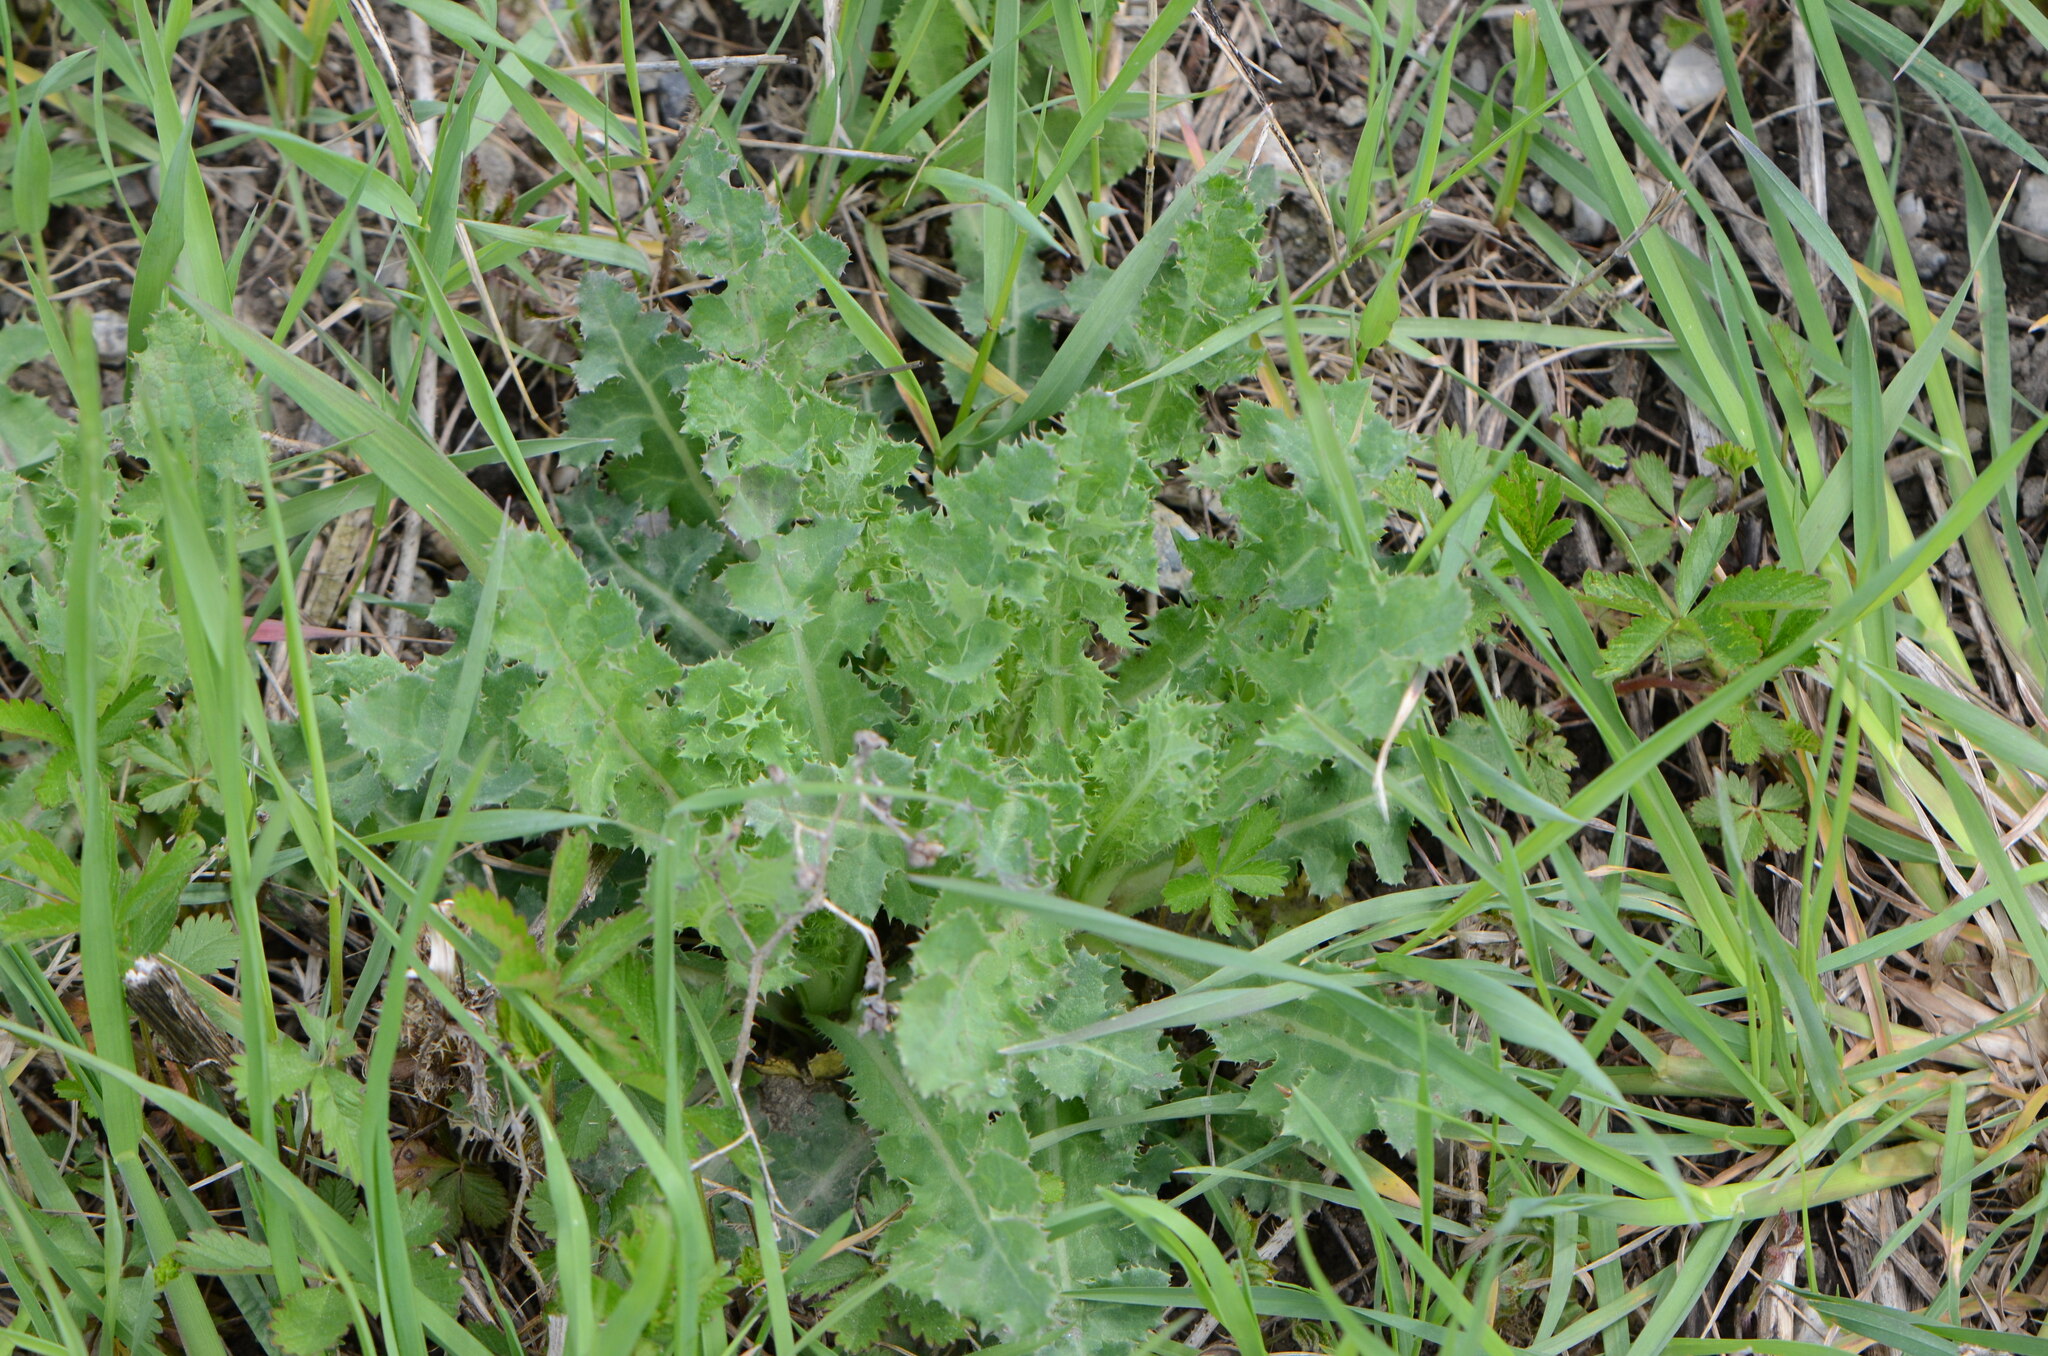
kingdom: Plantae
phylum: Tracheophyta
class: Magnoliopsida
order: Asterales
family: Asteraceae
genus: Sonchus
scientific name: Sonchus asper
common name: Prickly sow-thistle
